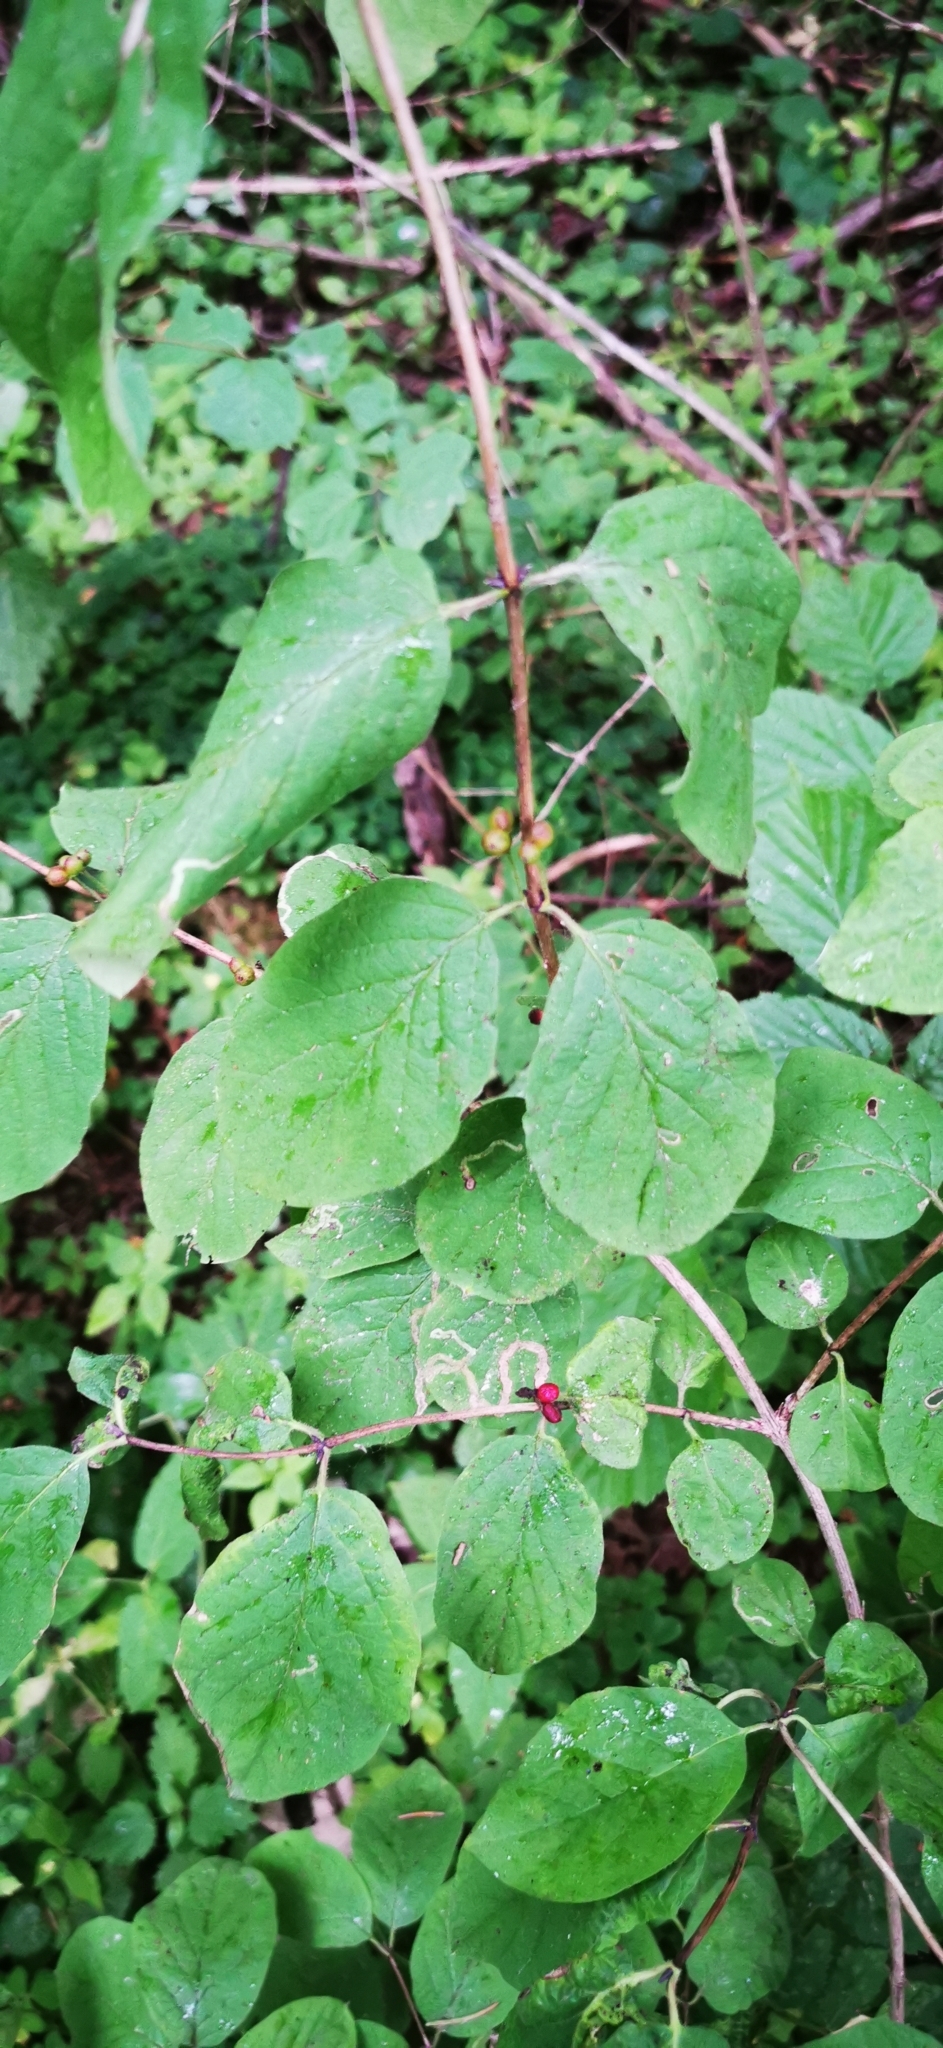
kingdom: Plantae
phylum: Tracheophyta
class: Magnoliopsida
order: Dipsacales
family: Caprifoliaceae
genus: Lonicera
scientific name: Lonicera xylosteum
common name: Fly honeysuckle
